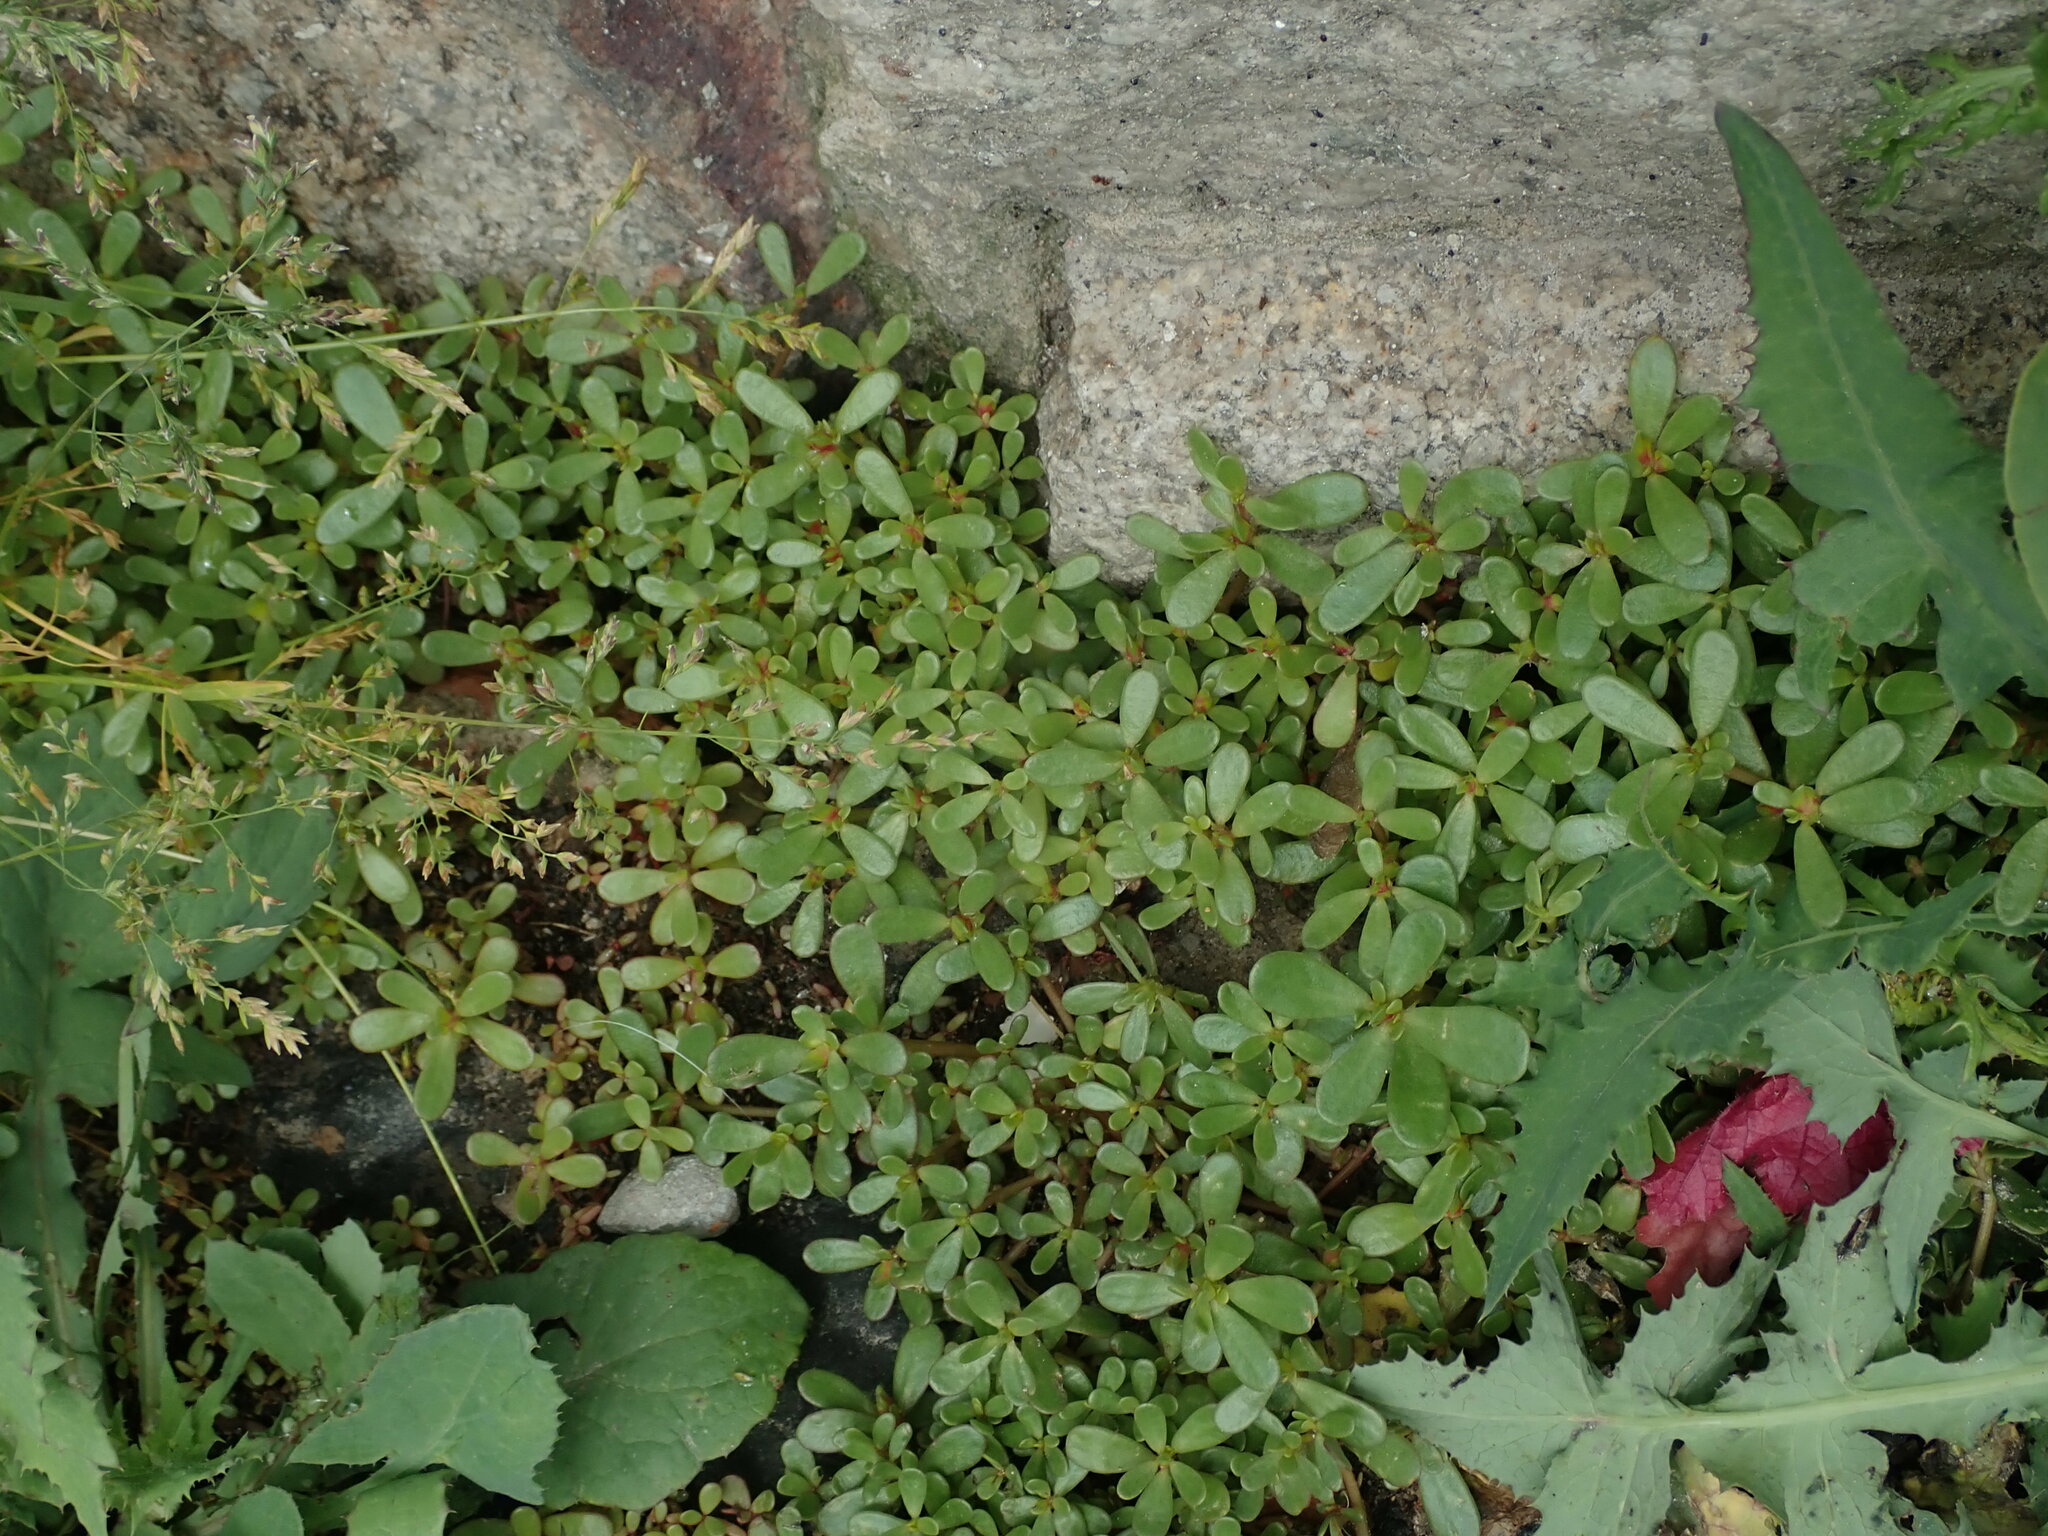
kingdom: Plantae
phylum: Tracheophyta
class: Magnoliopsida
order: Caryophyllales
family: Portulacaceae
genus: Portulaca
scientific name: Portulaca oleracea
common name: Common purslane
